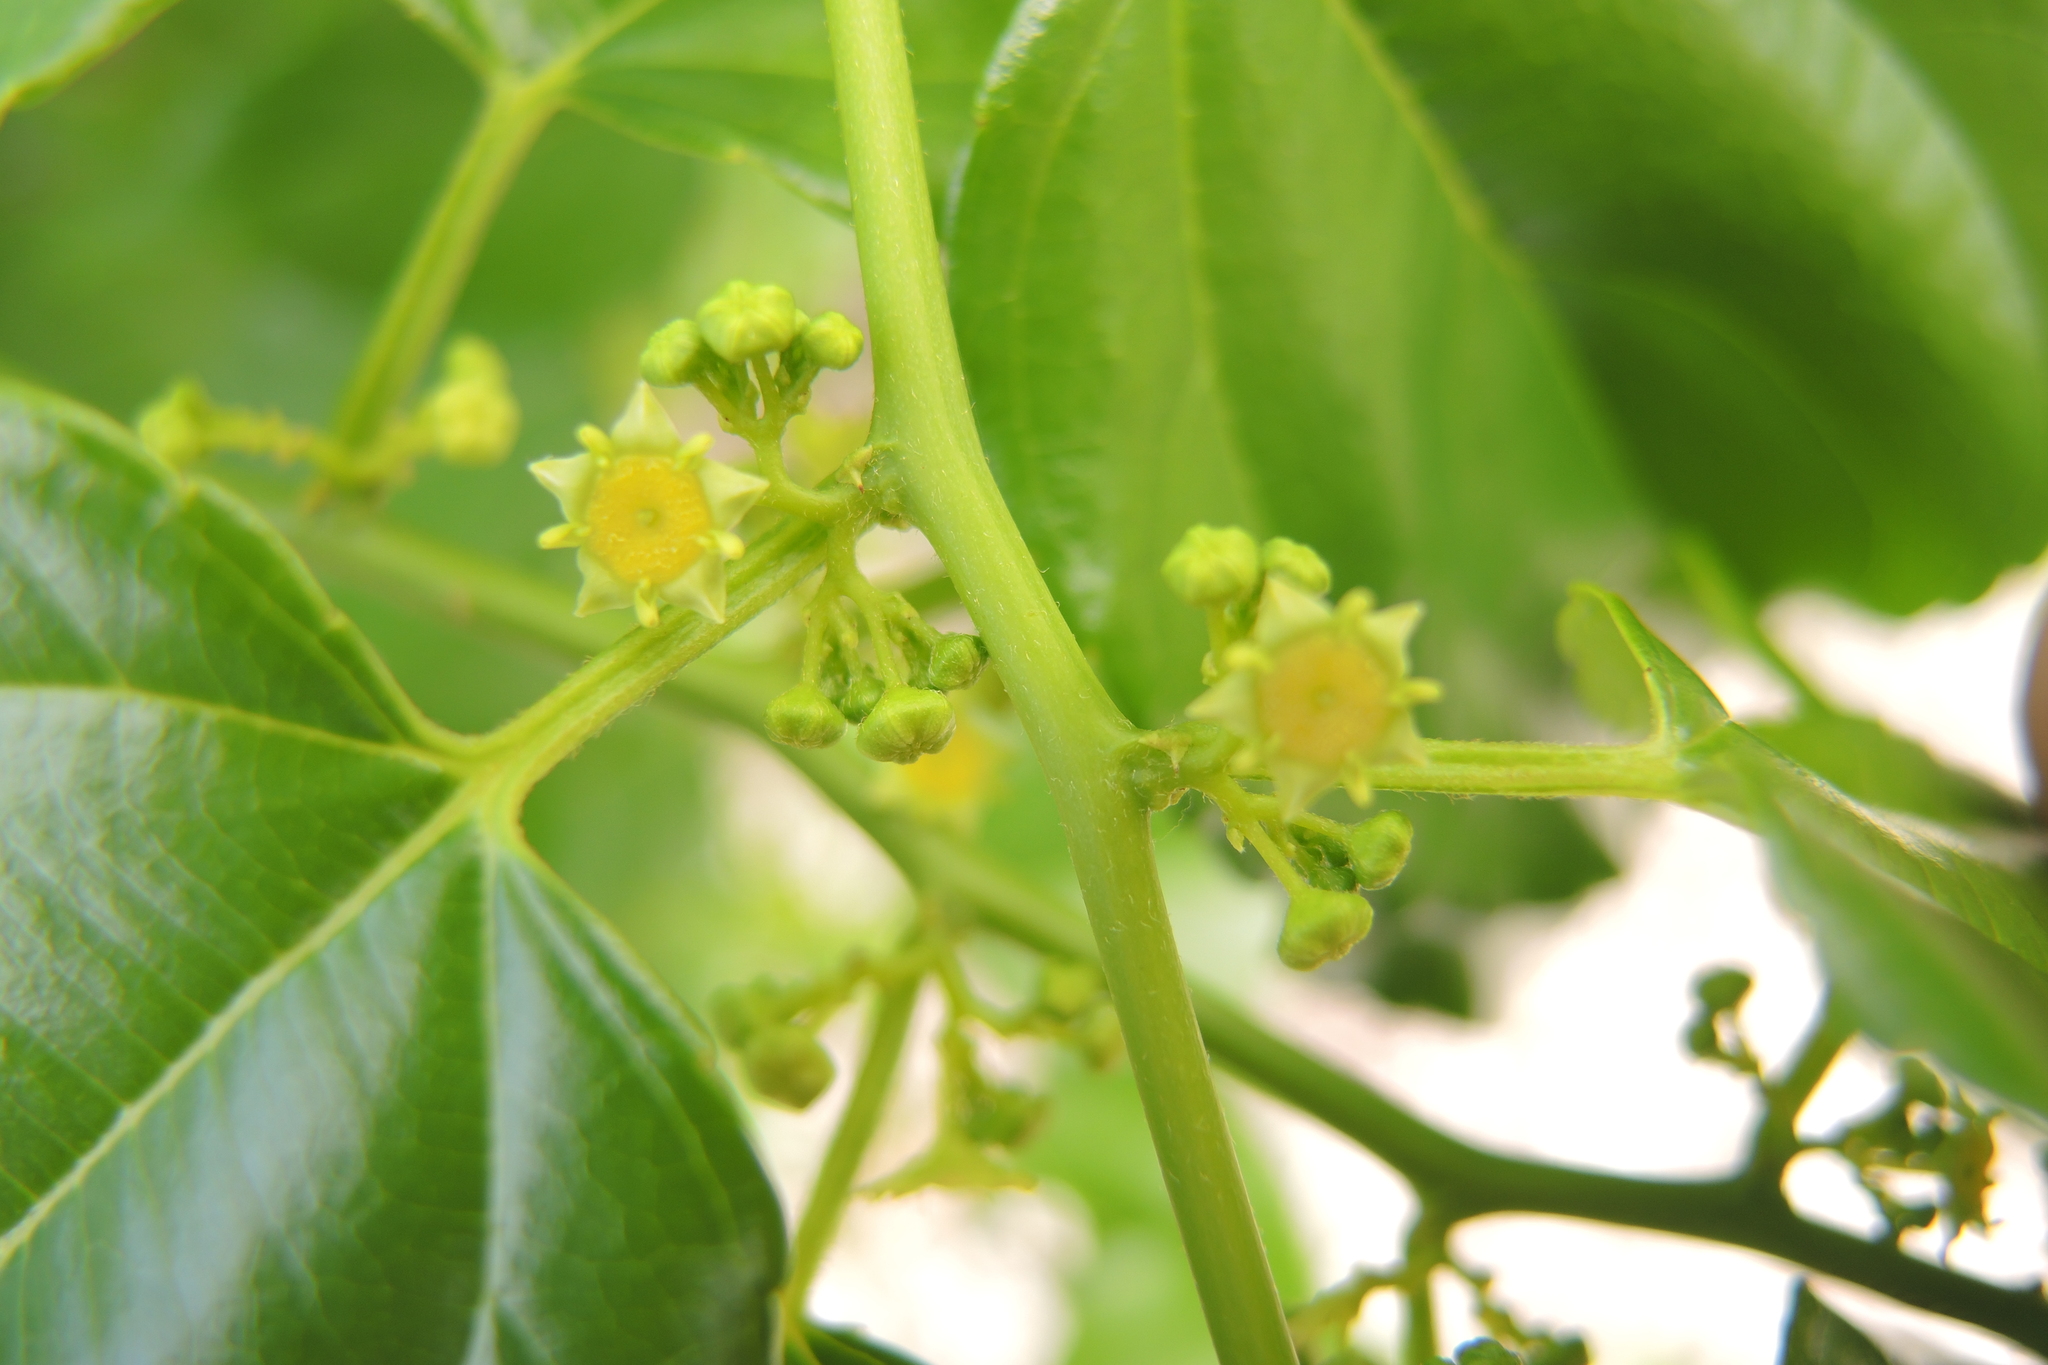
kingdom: Plantae
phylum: Tracheophyta
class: Magnoliopsida
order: Rosales
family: Rhamnaceae
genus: Colubrina
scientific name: Colubrina asiatica
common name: Asian nakedwood
